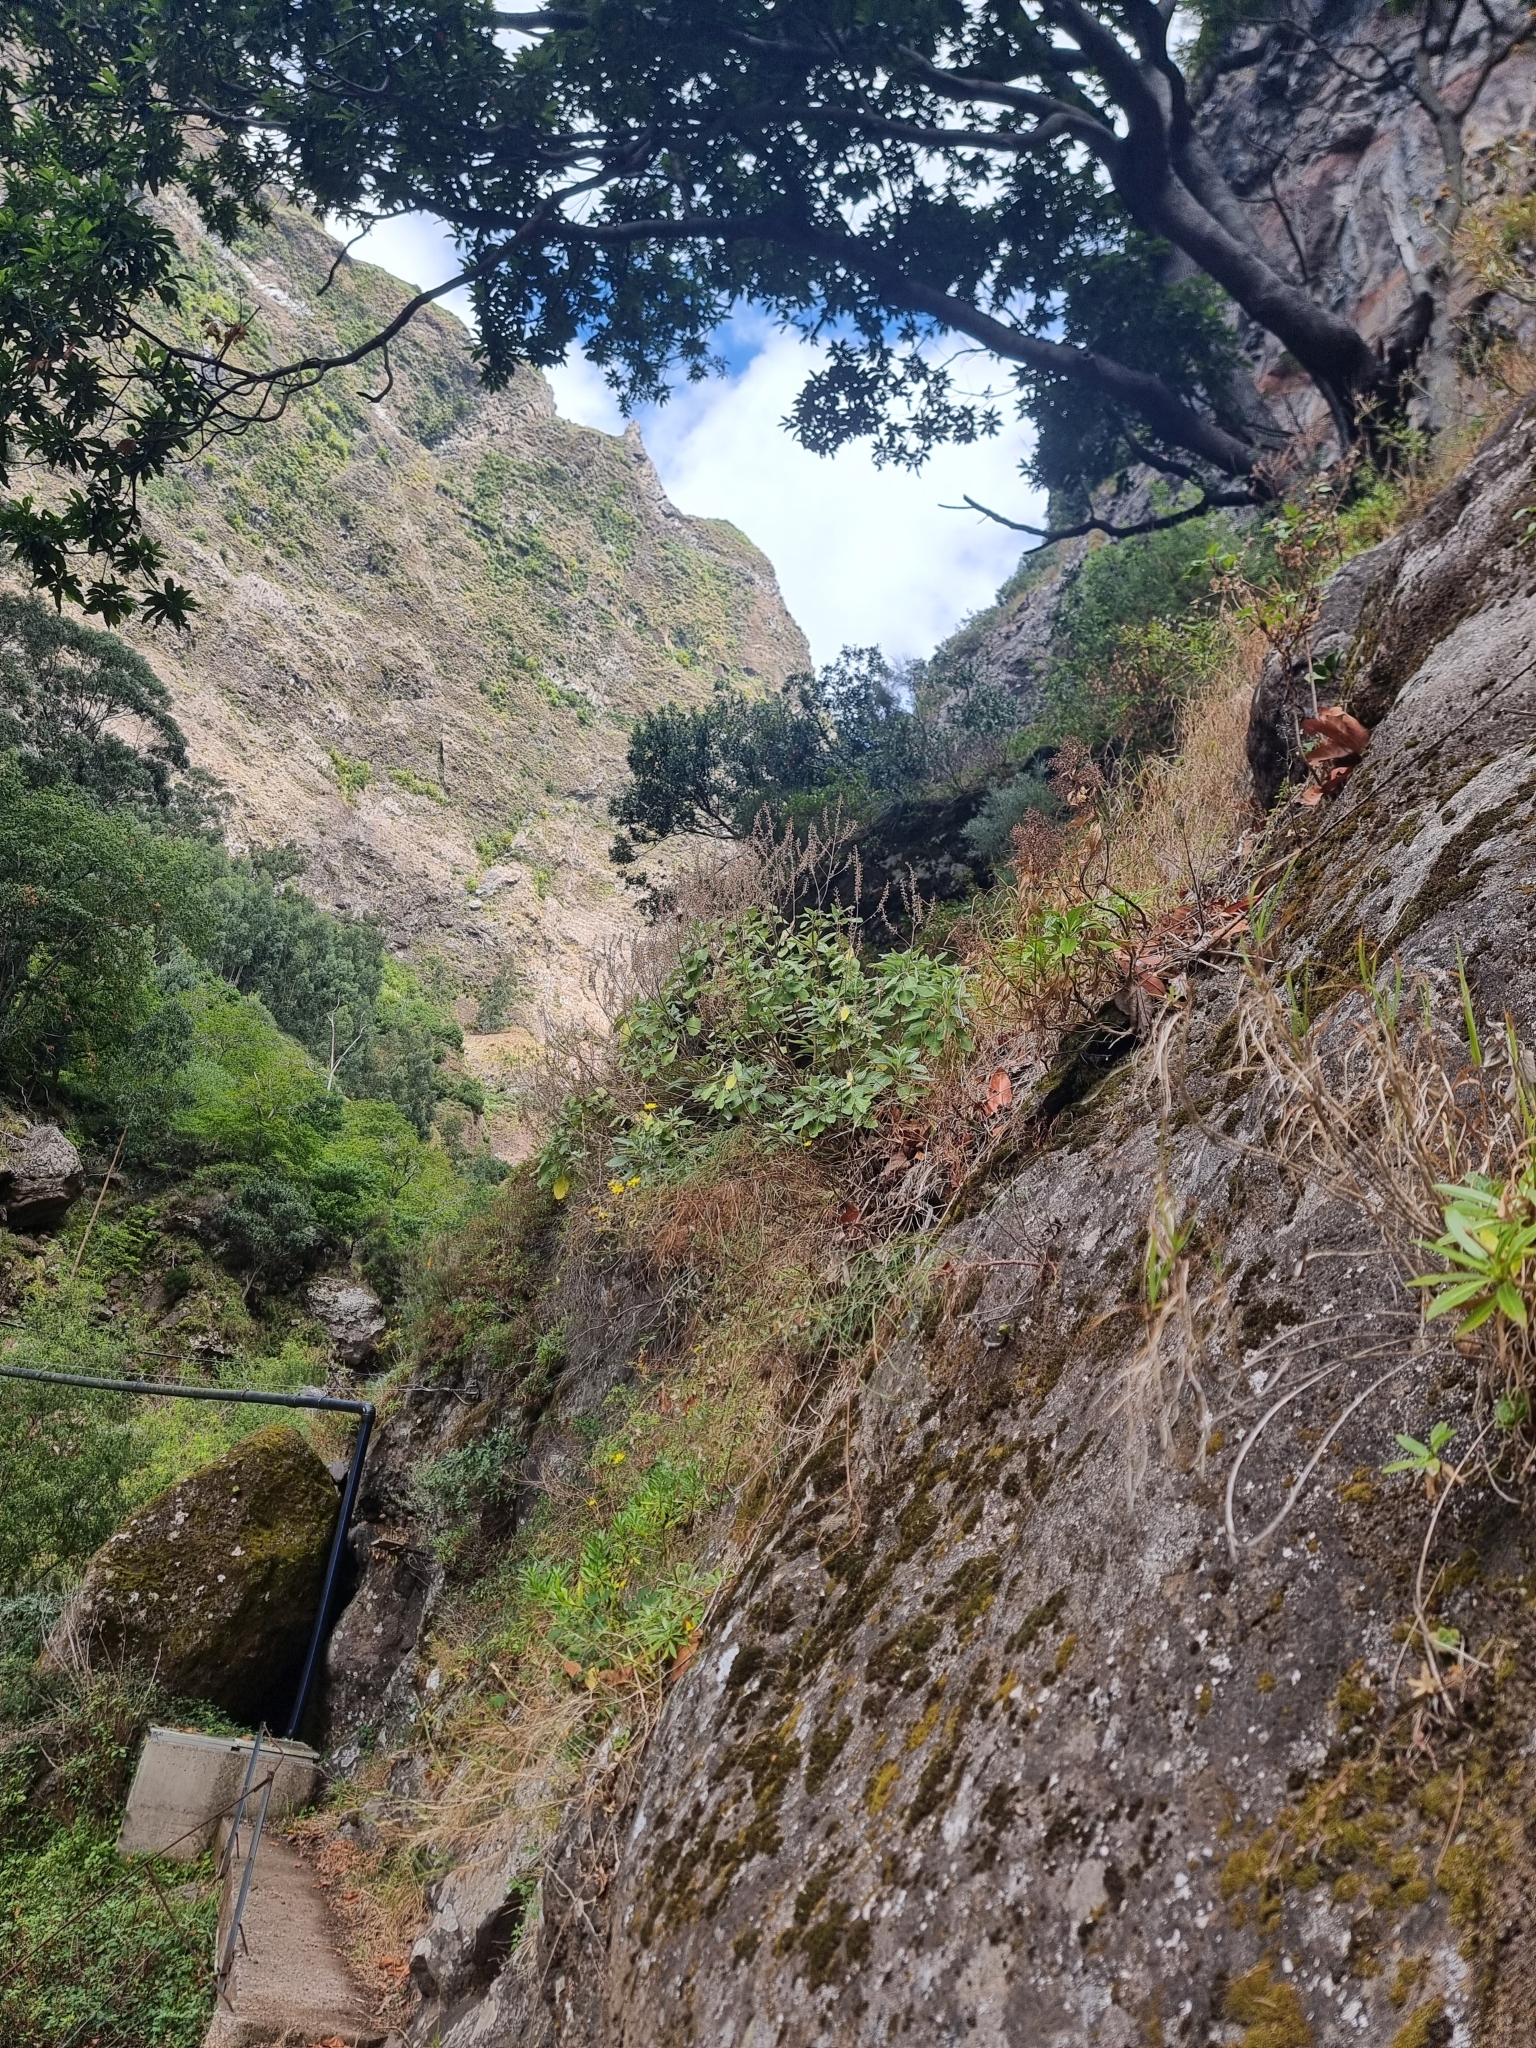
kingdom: Plantae
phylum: Tracheophyta
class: Magnoliopsida
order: Lamiales
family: Lamiaceae
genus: Teucrium
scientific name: Teucrium betonicum
